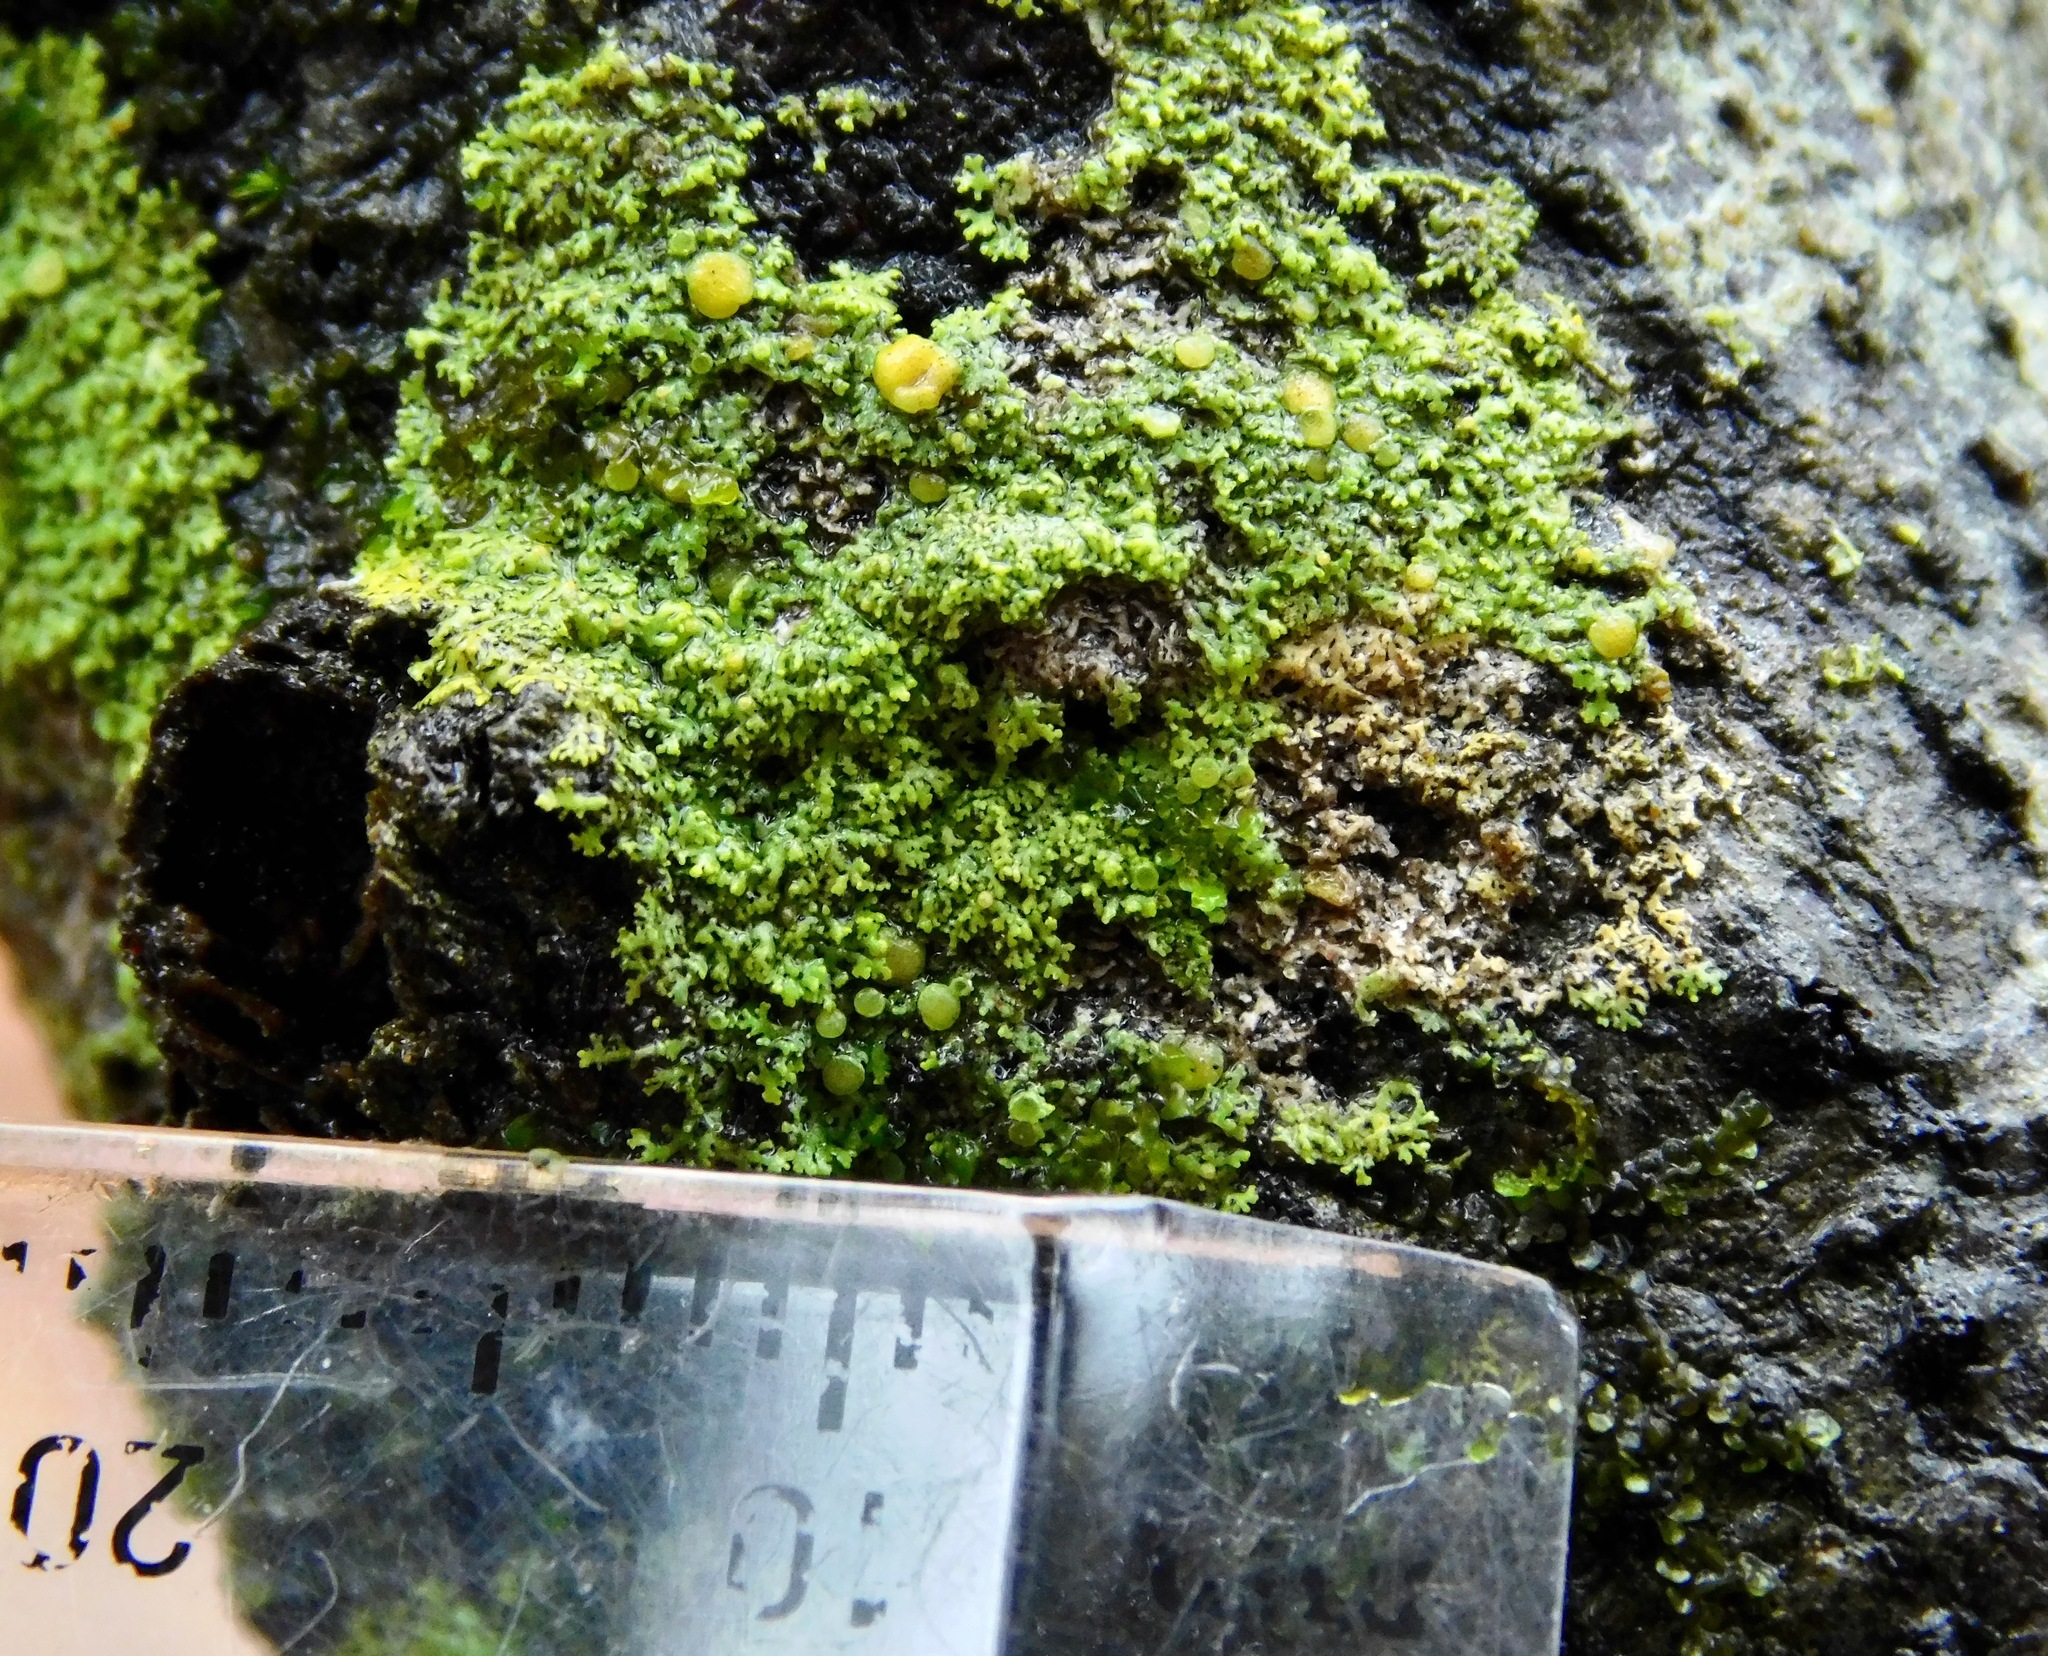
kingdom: Fungi
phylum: Ascomycota
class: Candelariomycetes
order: Candelariales
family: Candelariaceae
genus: Candelaria
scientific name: Candelaria fibrosa
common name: Fringed candleflame lichen
